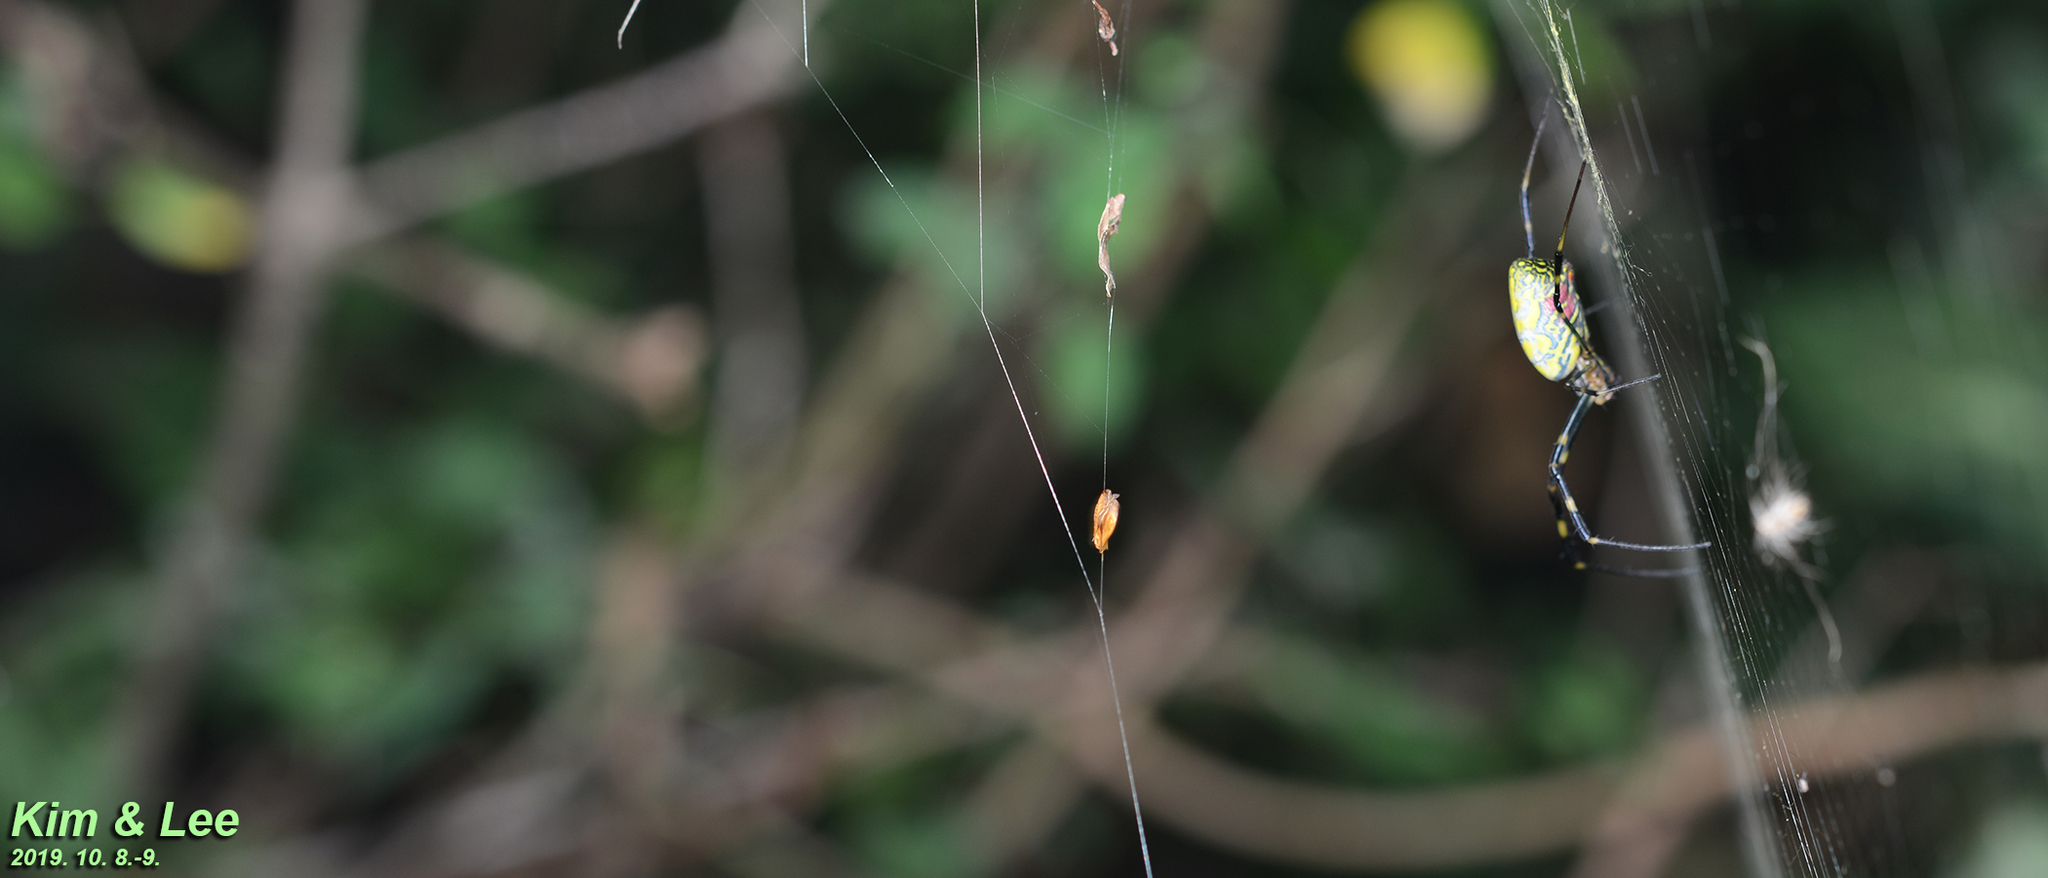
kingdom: Animalia
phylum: Arthropoda
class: Arachnida
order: Araneae
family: Araneidae
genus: Trichonephila
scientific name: Trichonephila clavata
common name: Jorō spider
